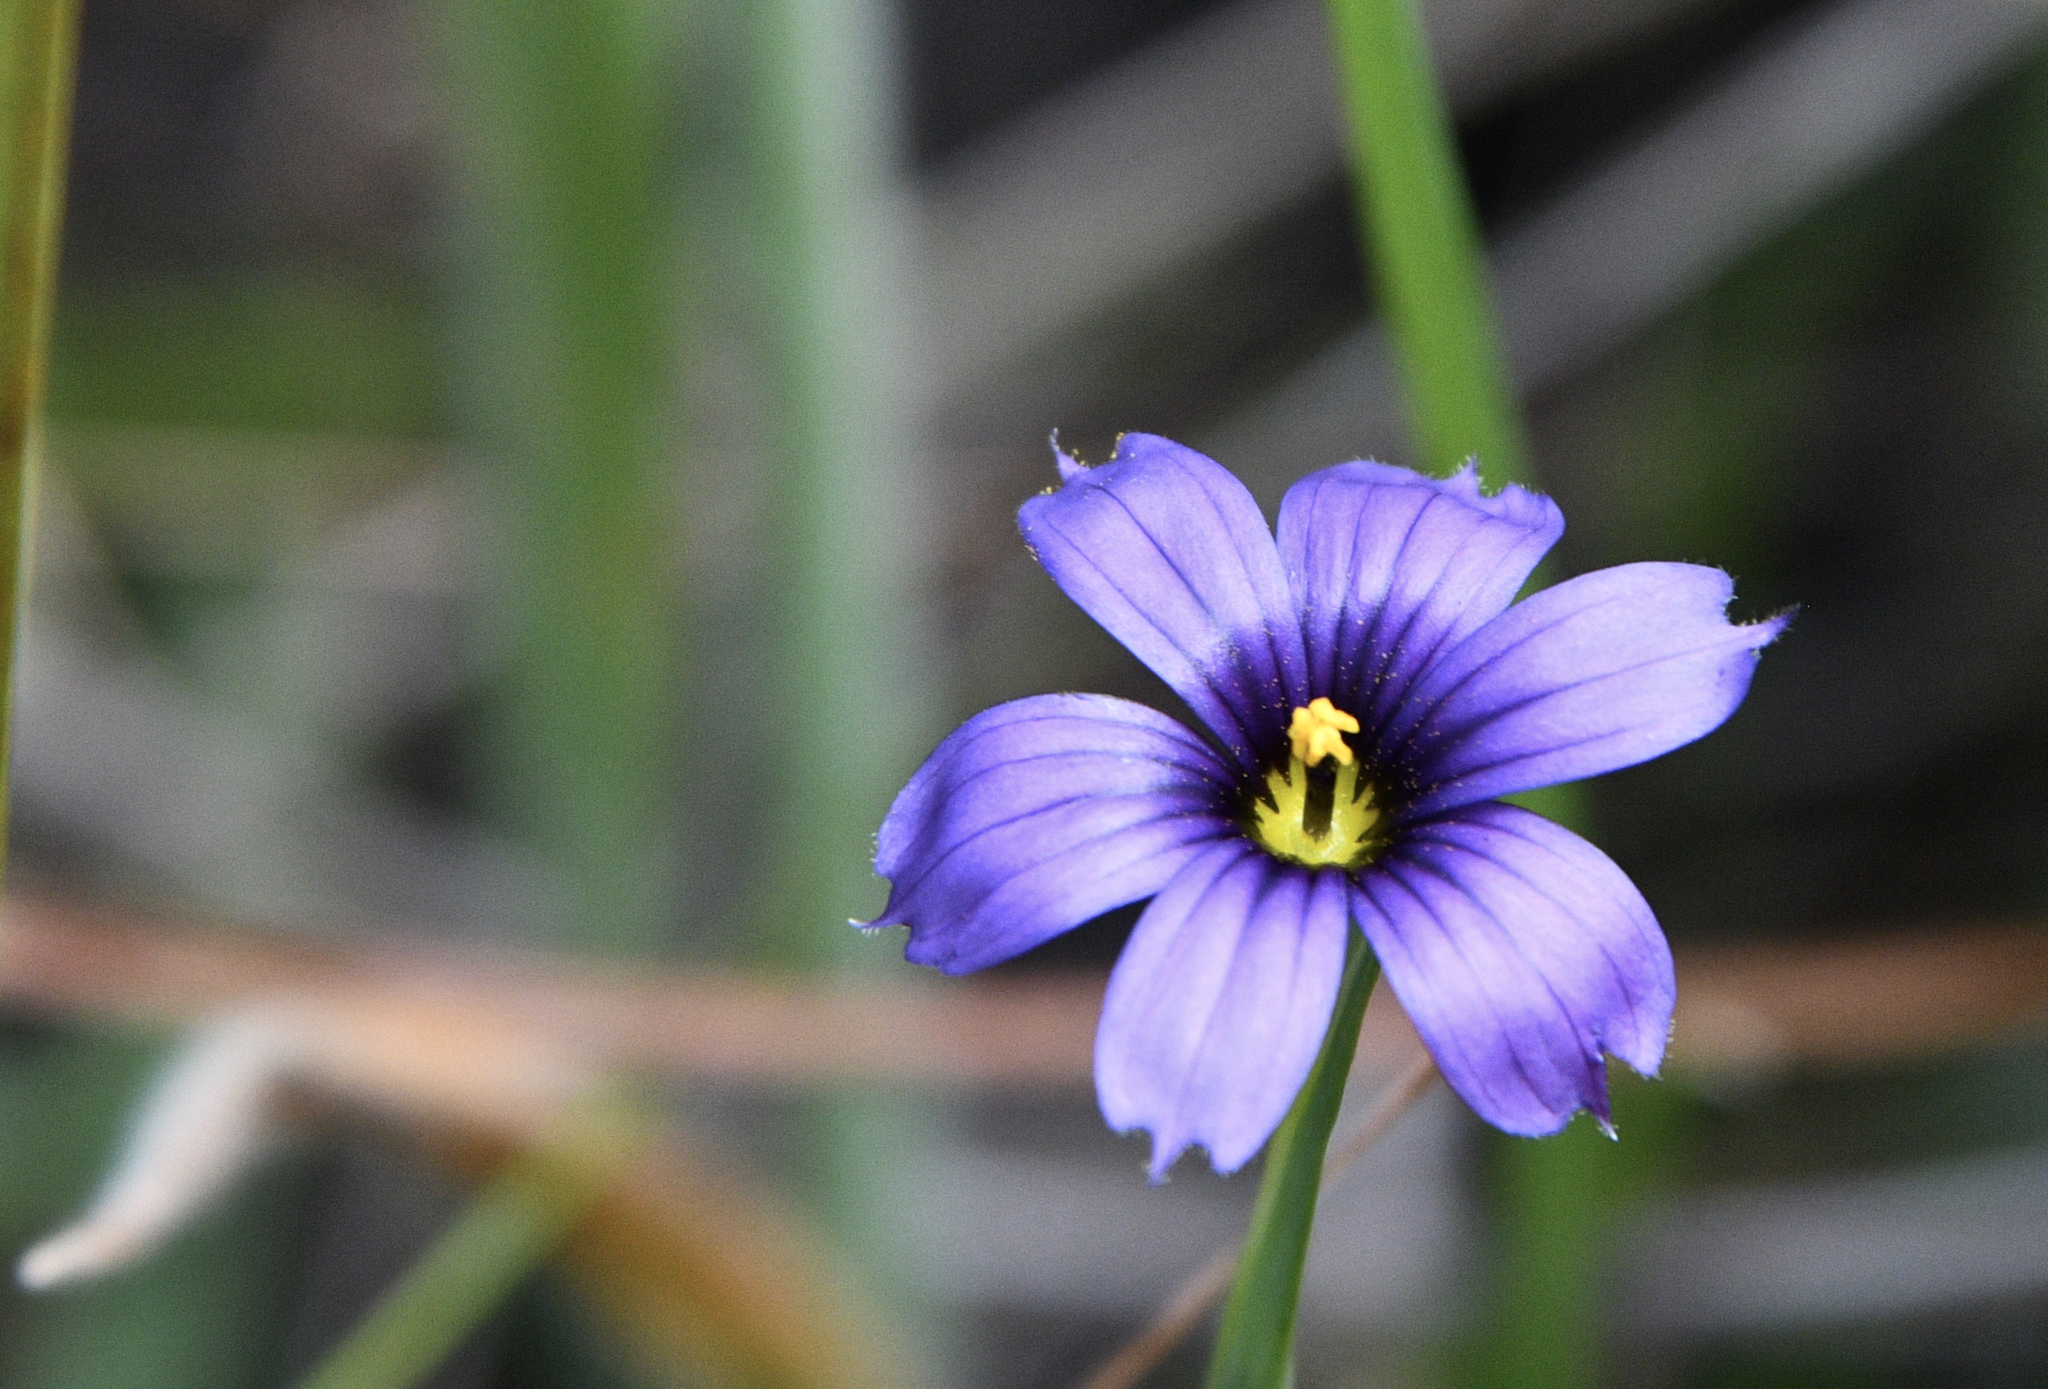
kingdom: Plantae
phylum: Tracheophyta
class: Liliopsida
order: Asparagales
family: Iridaceae
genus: Sisyrinchium
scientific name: Sisyrinchium bellum
